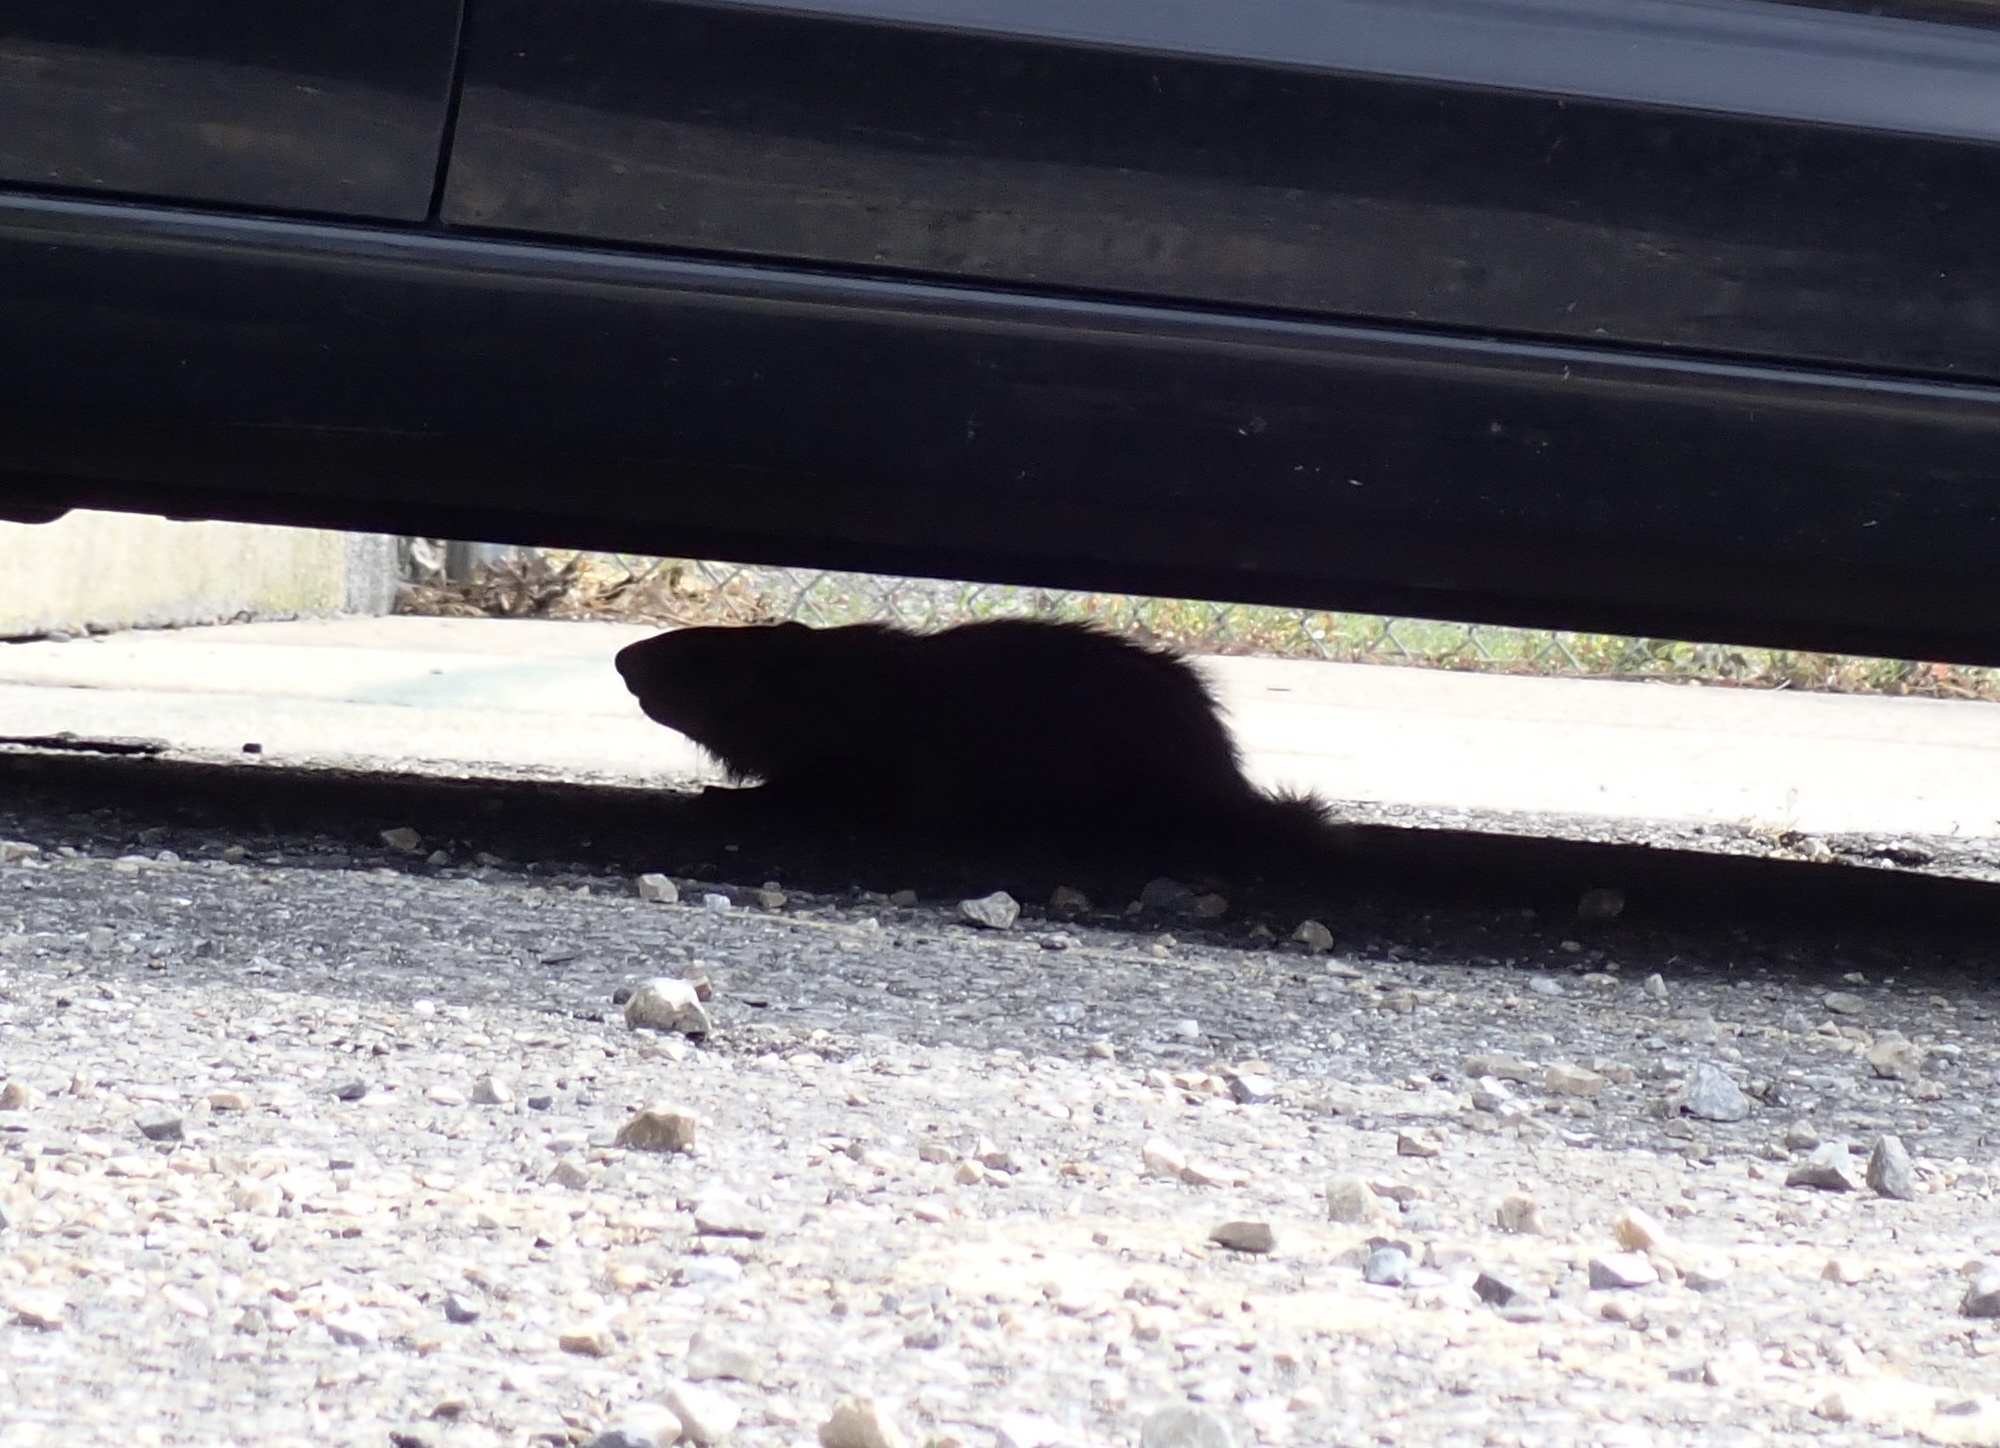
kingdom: Animalia
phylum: Chordata
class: Mammalia
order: Rodentia
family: Sciuridae
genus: Marmota
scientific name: Marmota monax
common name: Groundhog
